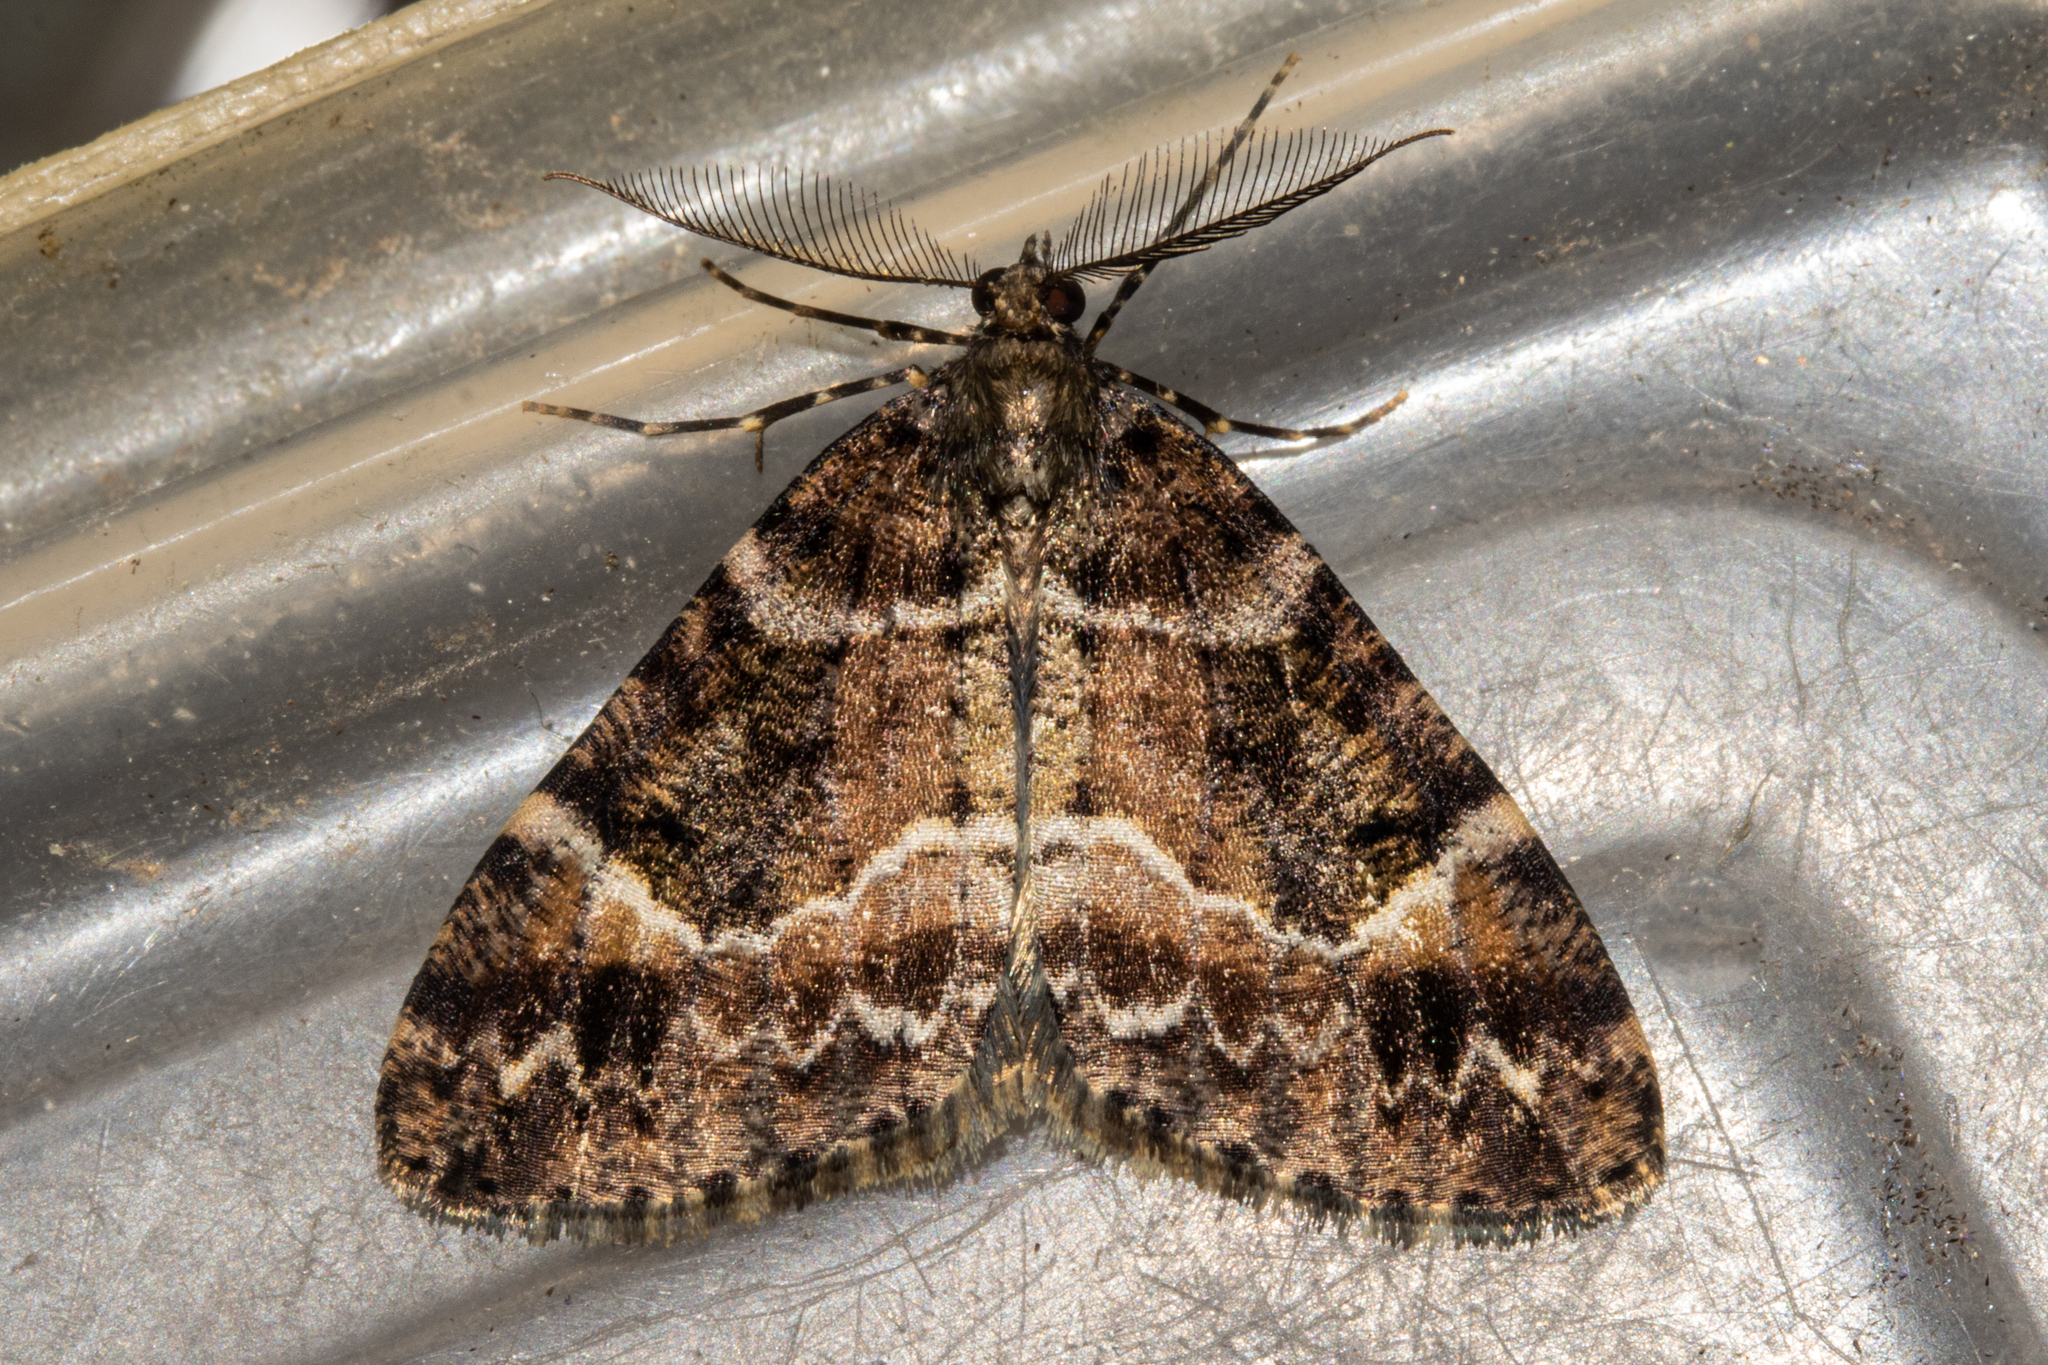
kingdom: Animalia
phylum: Arthropoda
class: Insecta
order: Lepidoptera
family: Geometridae
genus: Pseudocoremia
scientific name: Pseudocoremia productata
